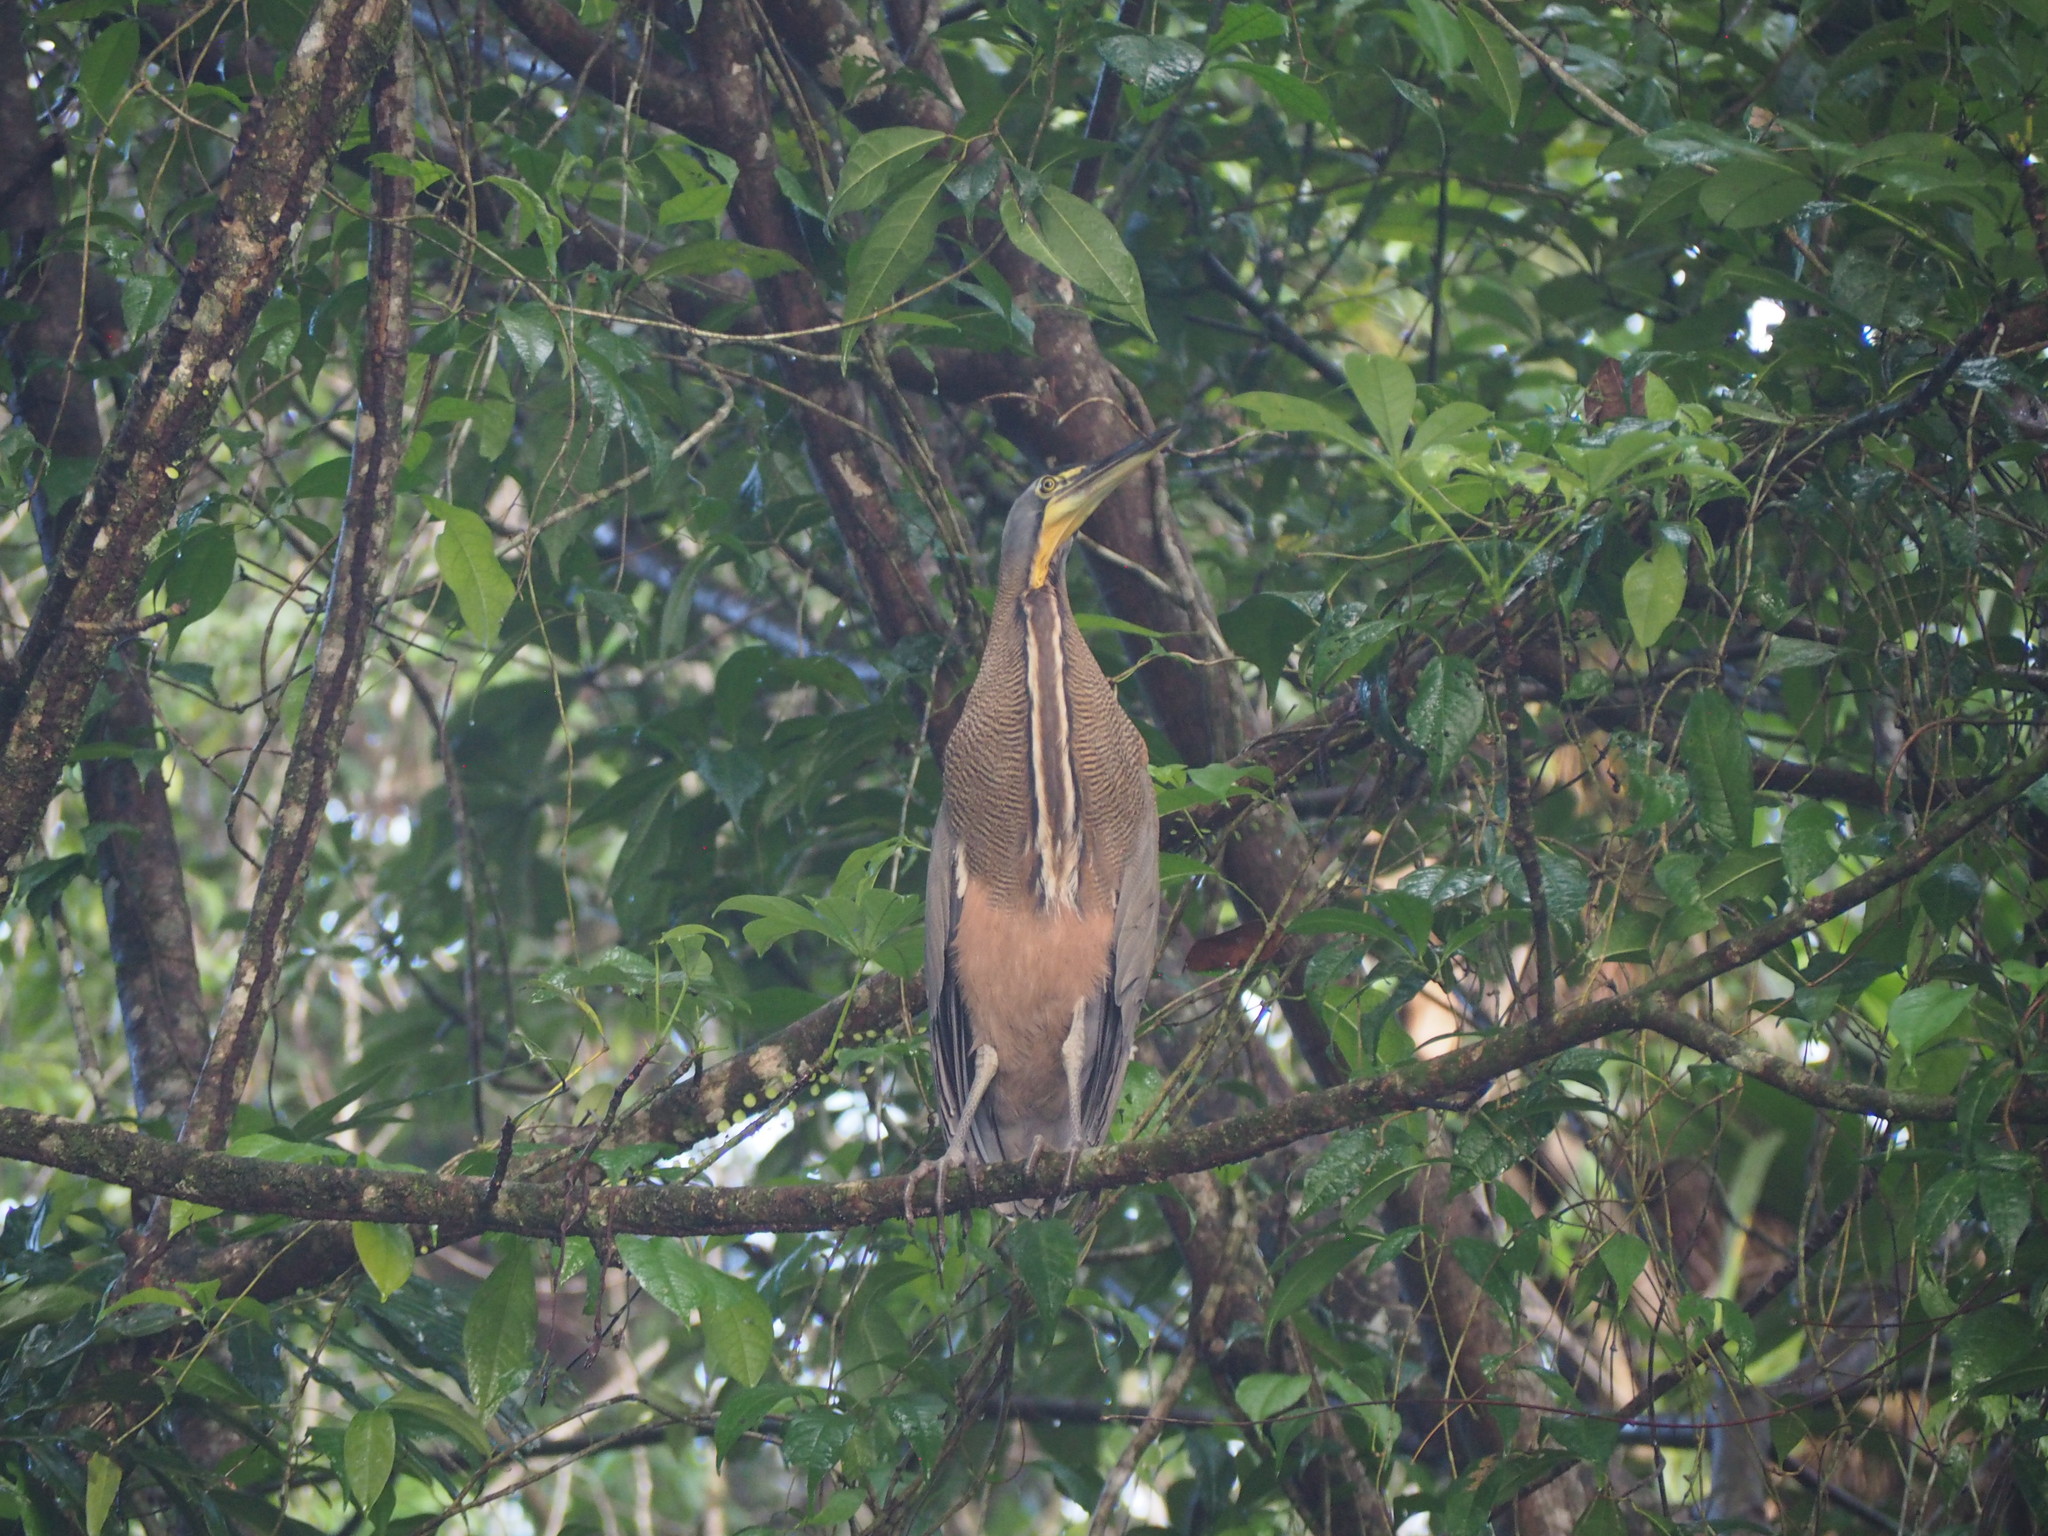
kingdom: Animalia
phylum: Chordata
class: Aves
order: Pelecaniformes
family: Ardeidae
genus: Tigrisoma
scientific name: Tigrisoma mexicanum
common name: Bare-throated tiger-heron
